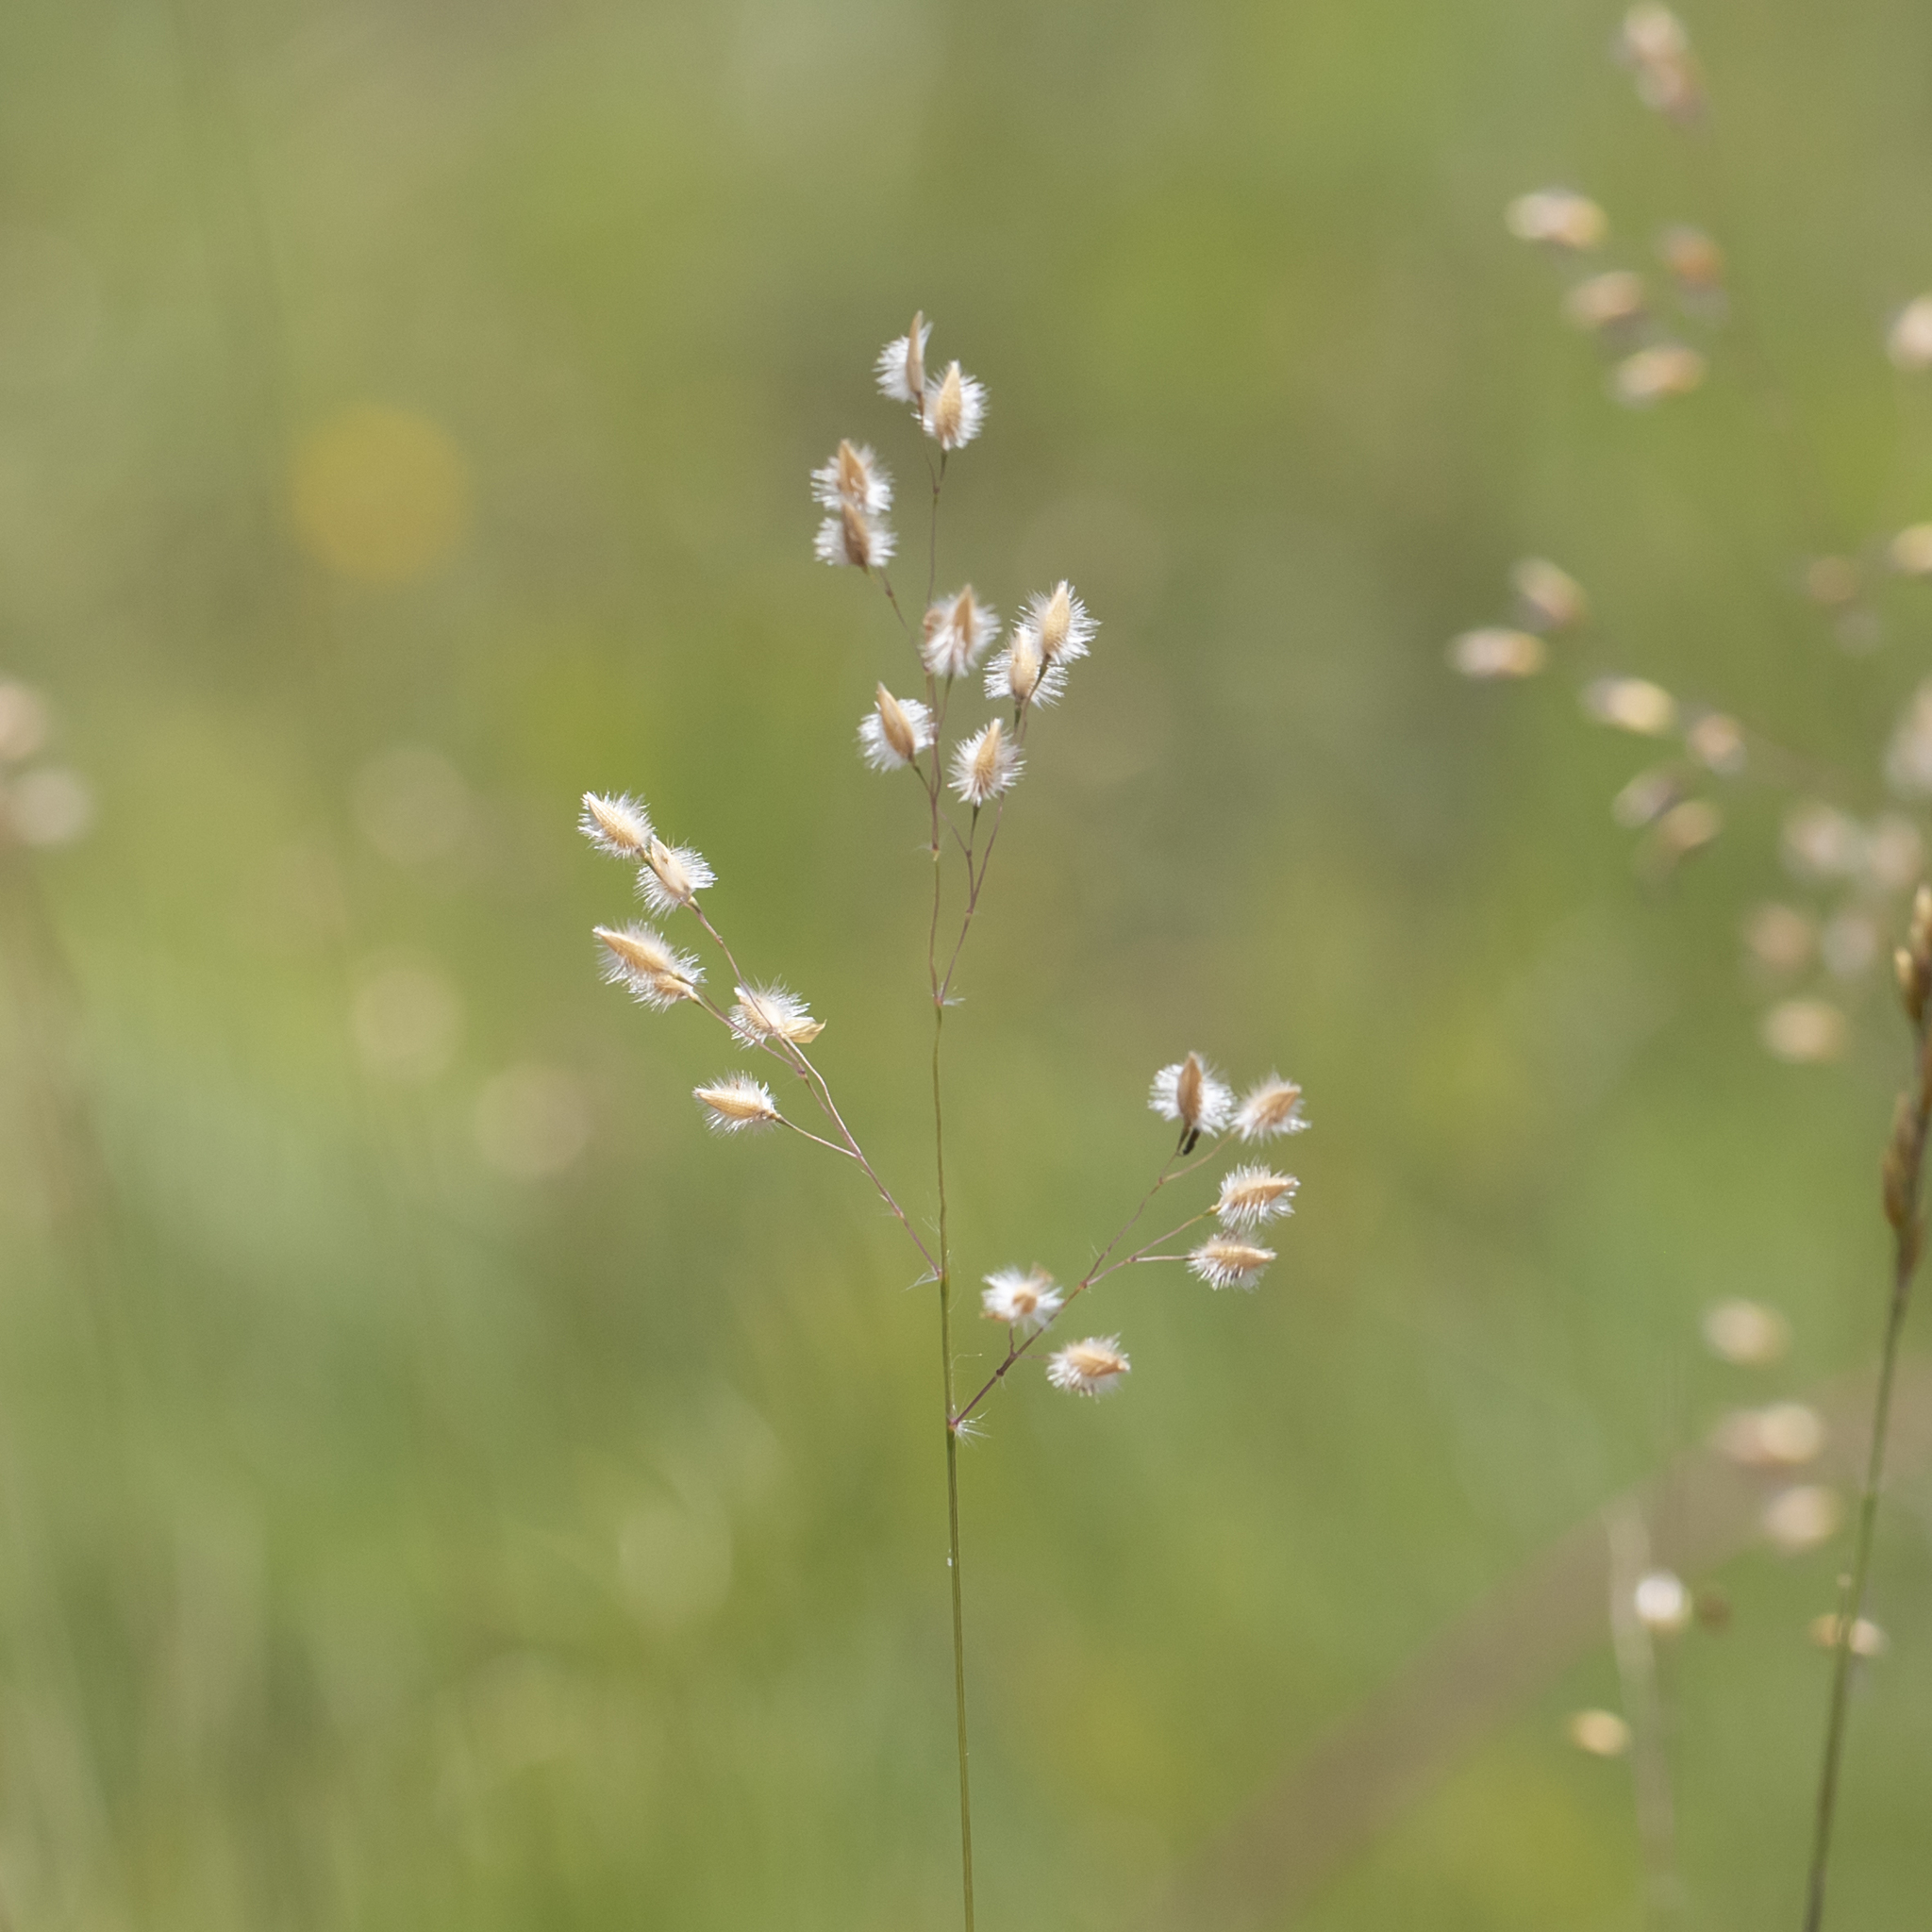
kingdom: Plantae
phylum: Tracheophyta
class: Liliopsida
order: Poales
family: Poaceae
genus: Eriachne
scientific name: Eriachne nodosa
